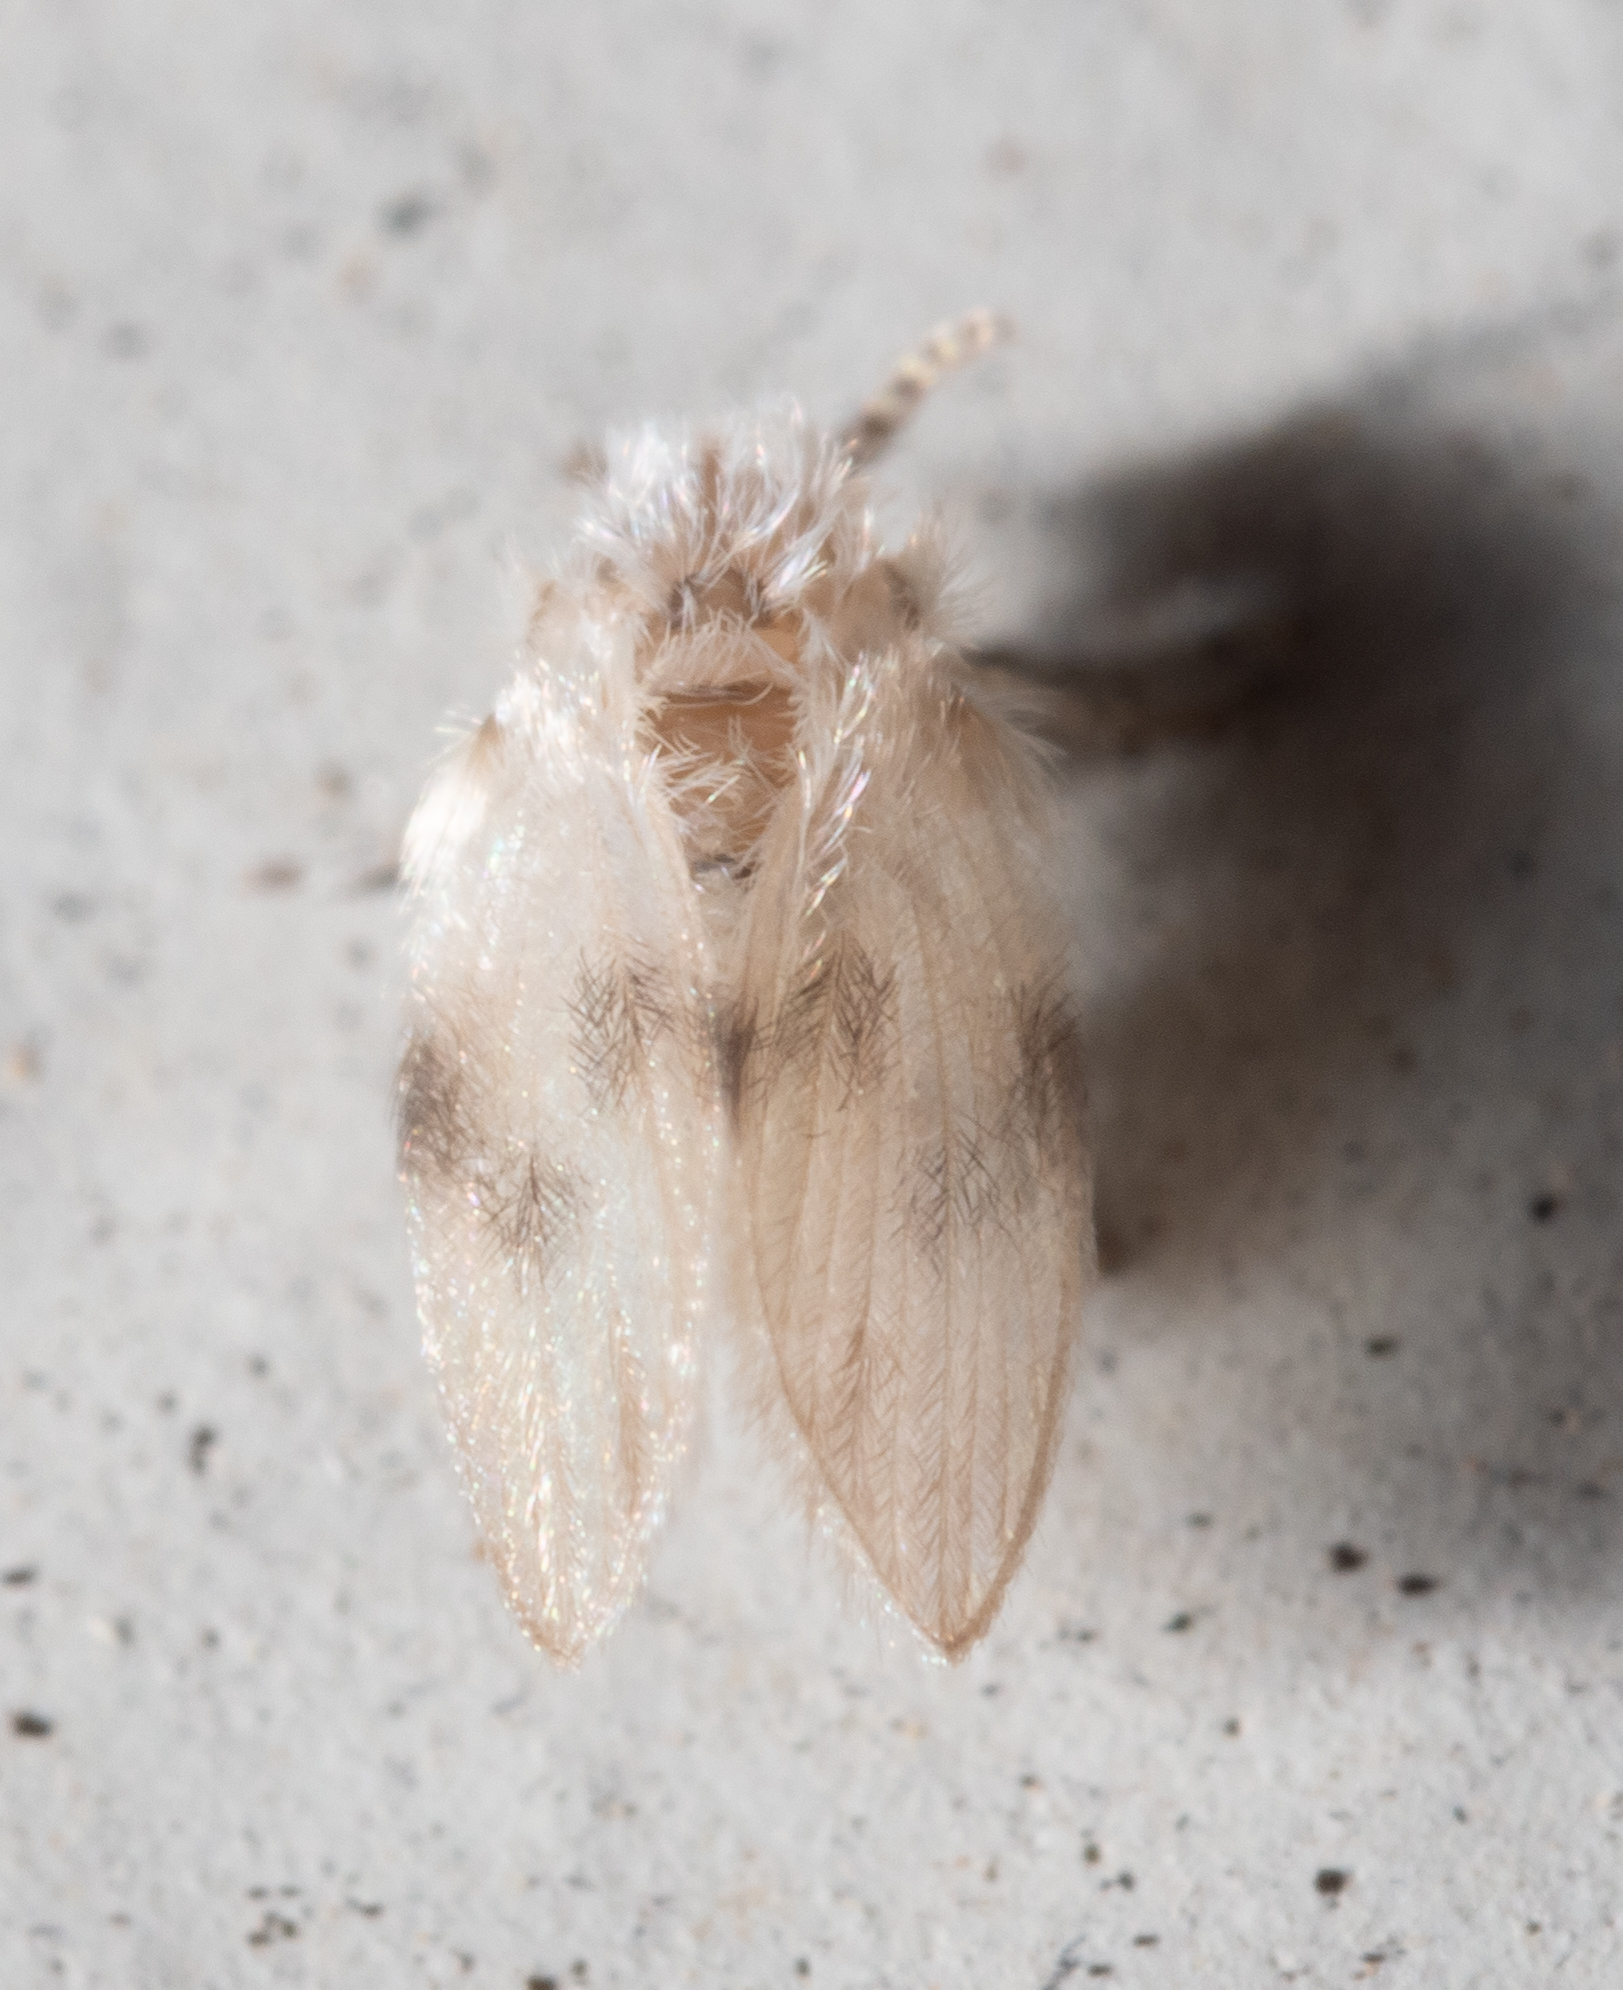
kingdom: Animalia
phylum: Arthropoda
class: Insecta
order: Diptera
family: Psychodidae
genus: Psychoda
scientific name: Psychoda sigma
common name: Moth fly
